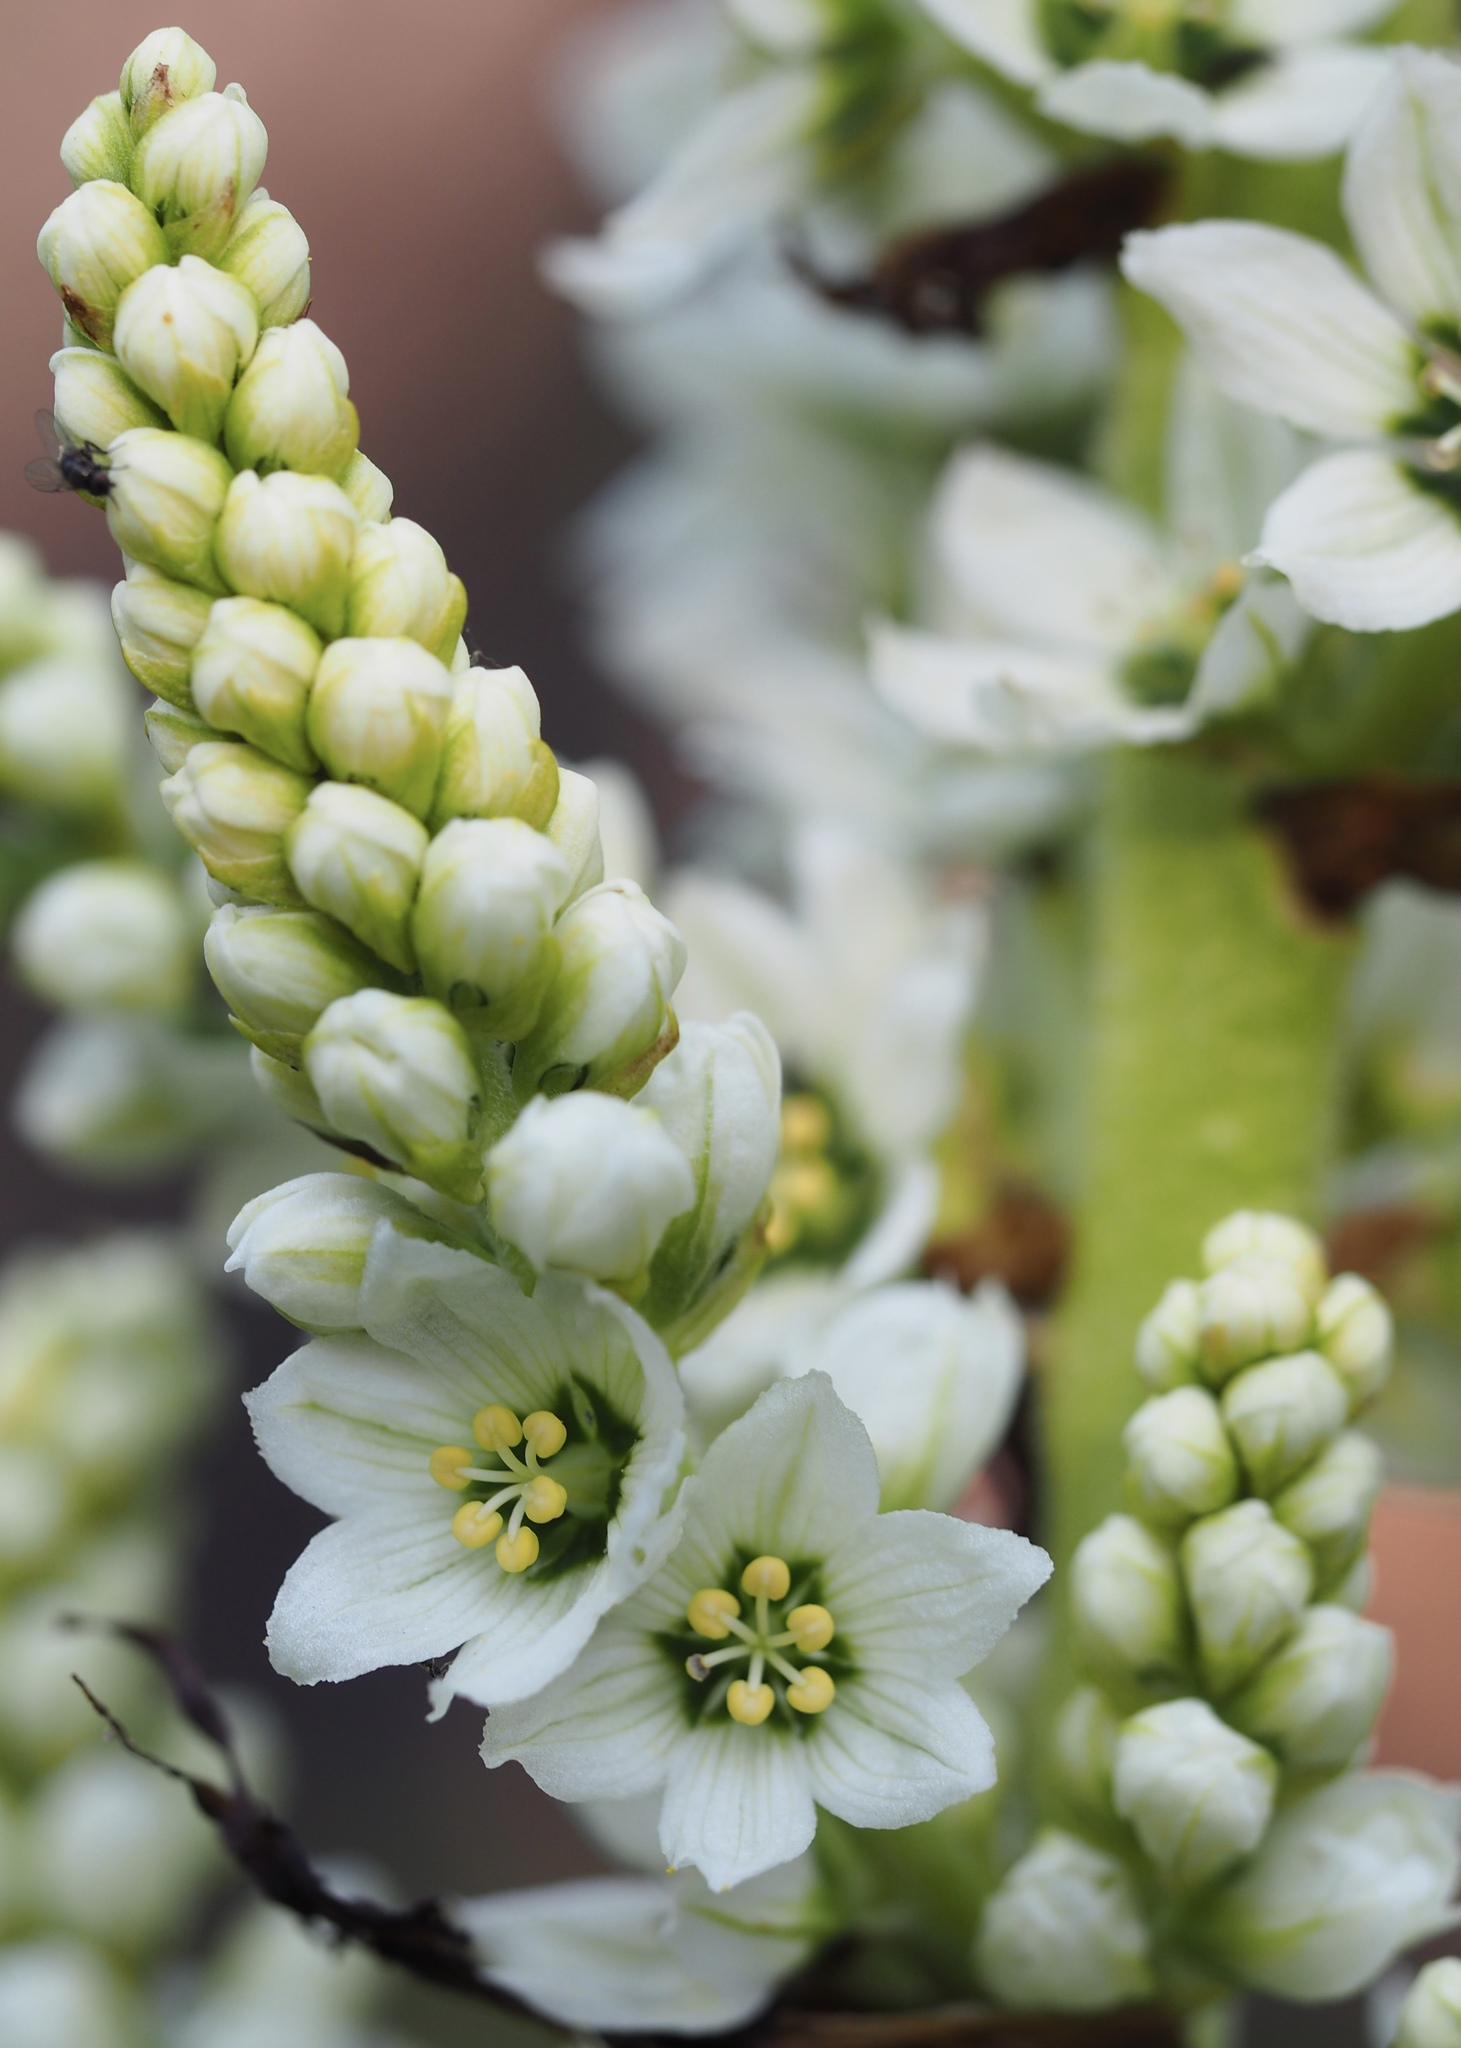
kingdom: Plantae
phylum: Tracheophyta
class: Liliopsida
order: Liliales
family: Melanthiaceae
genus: Veratrum
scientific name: Veratrum californicum
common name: California veratrum
